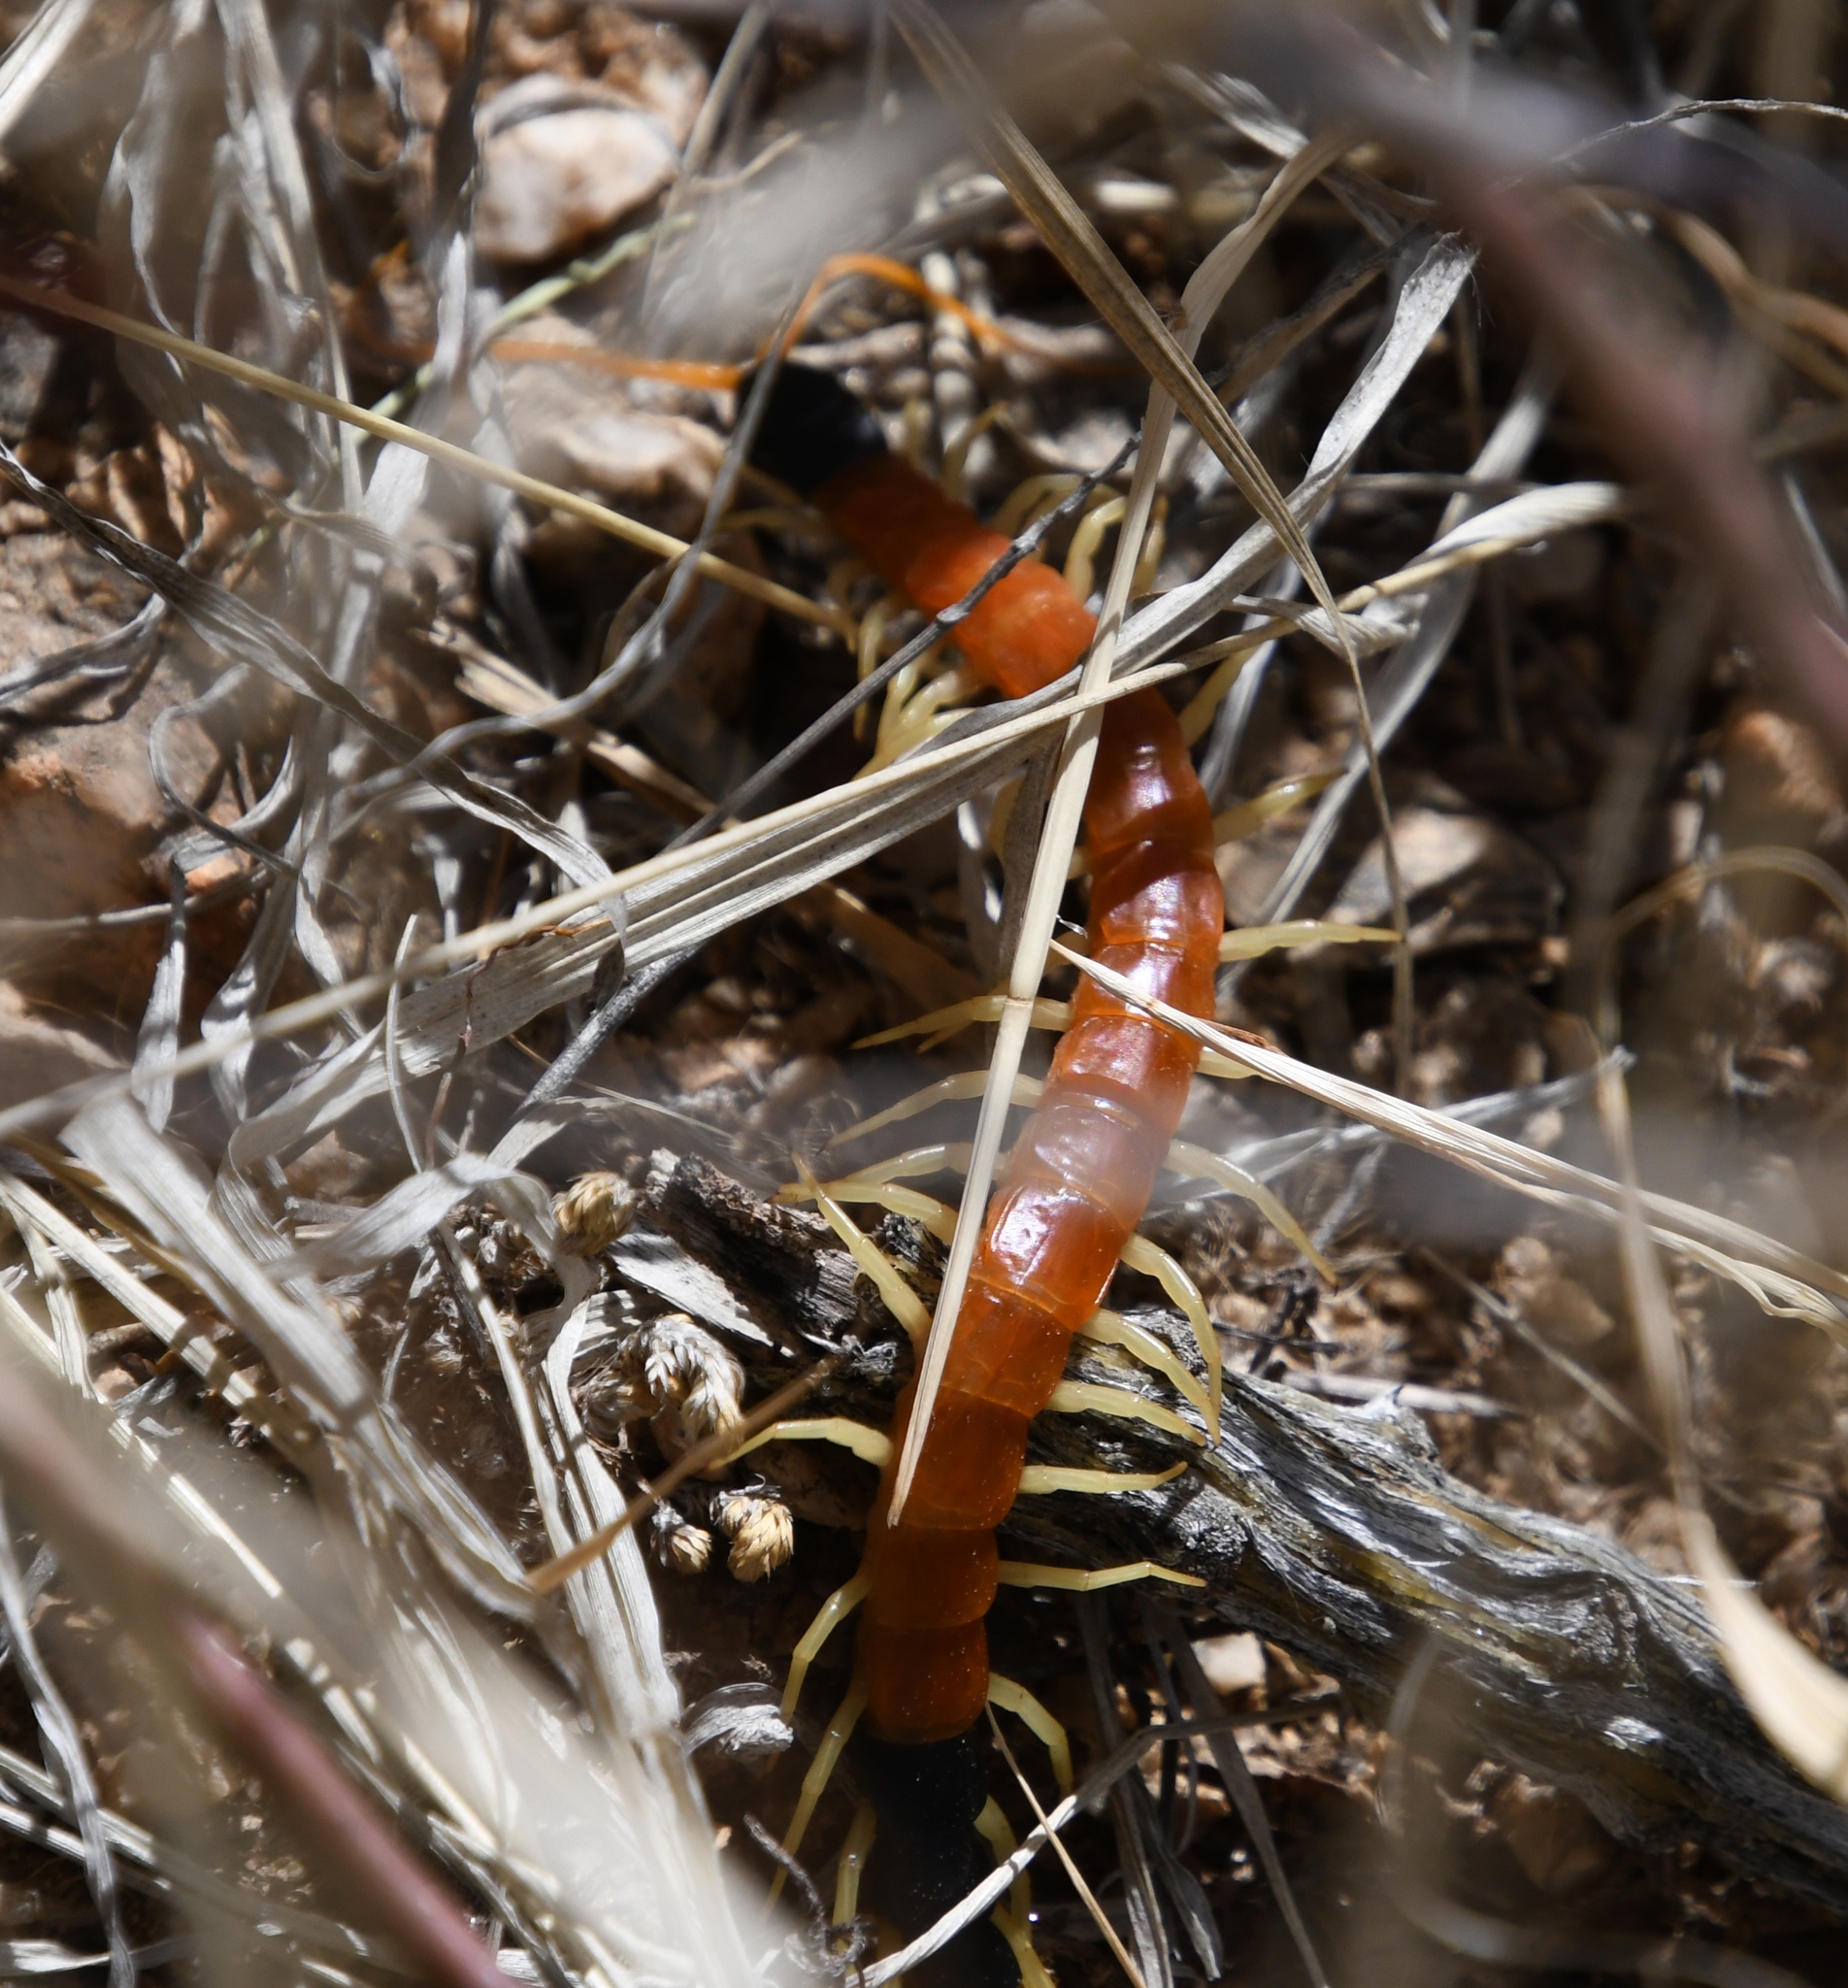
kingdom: Animalia
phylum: Arthropoda
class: Chilopoda
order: Scolopendromorpha
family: Scolopendridae
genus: Scolopendra
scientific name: Scolopendra heros
